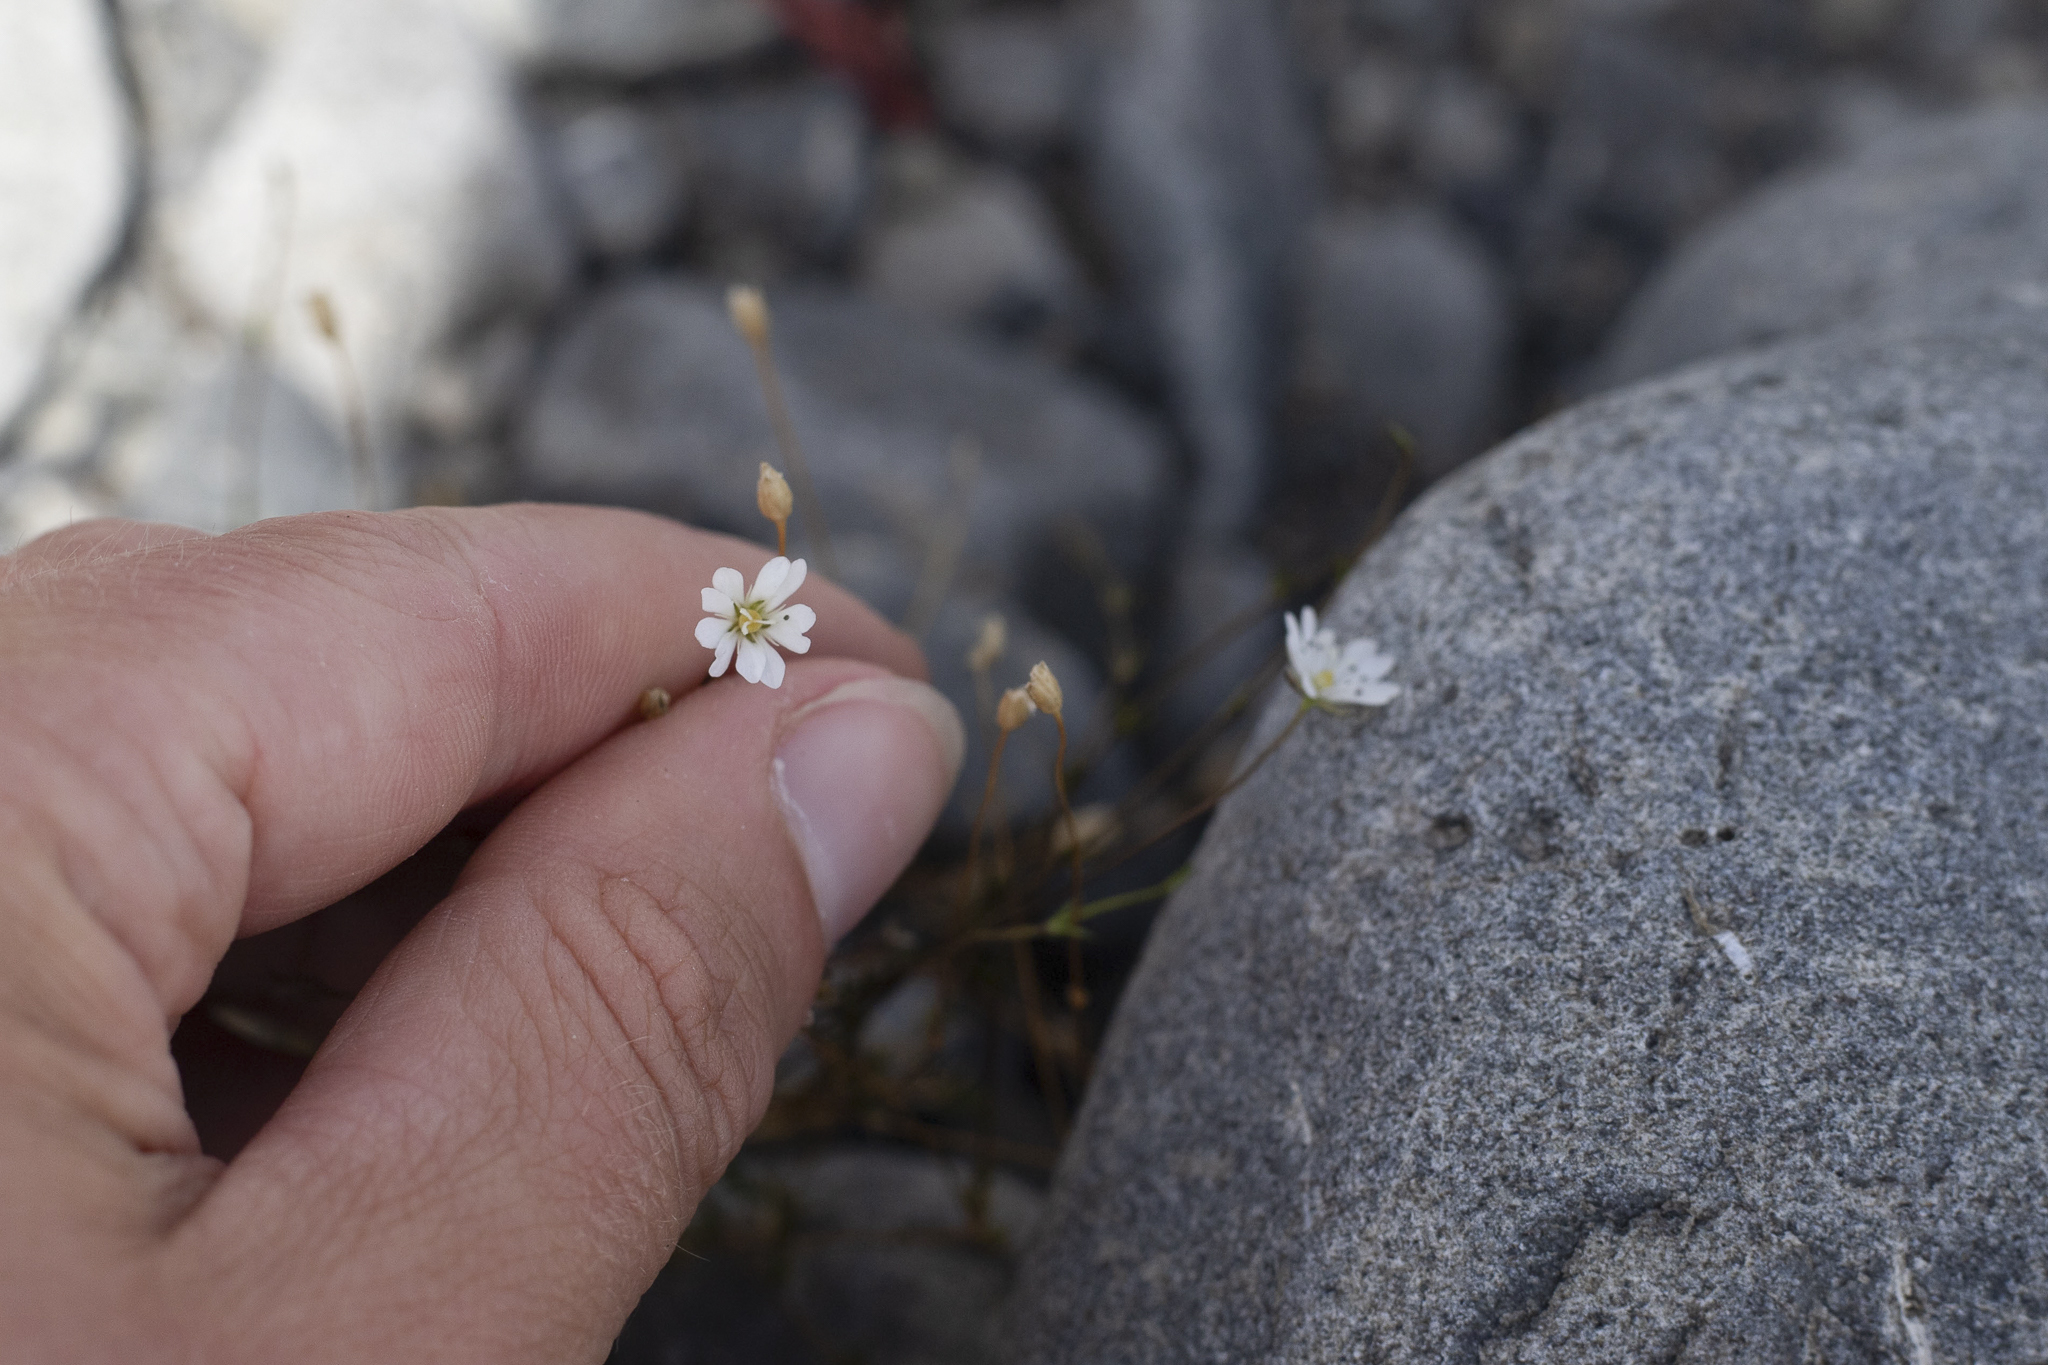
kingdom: Plantae
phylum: Tracheophyta
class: Magnoliopsida
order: Caryophyllales
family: Caryophyllaceae
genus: Stellaria
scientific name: Stellaria gracilenta
